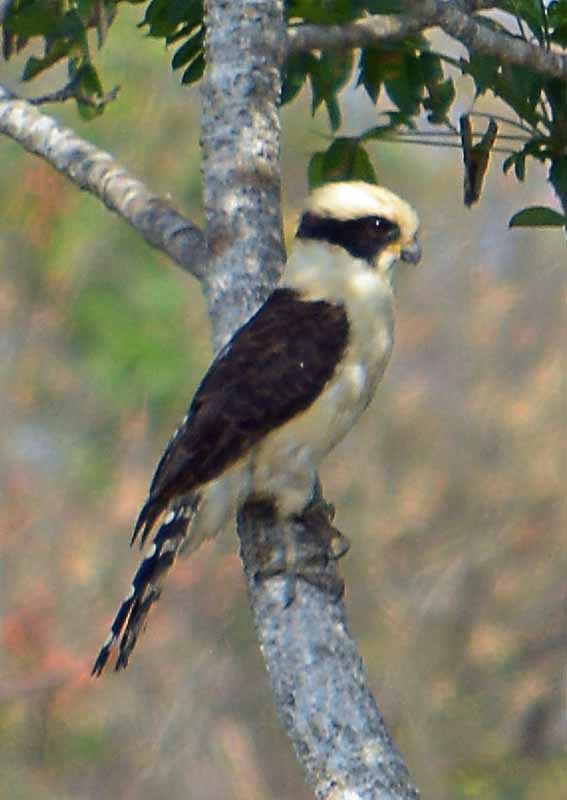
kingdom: Animalia
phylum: Chordata
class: Aves
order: Falconiformes
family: Falconidae
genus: Herpetotheres
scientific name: Herpetotheres cachinnans
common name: Laughing falcon
